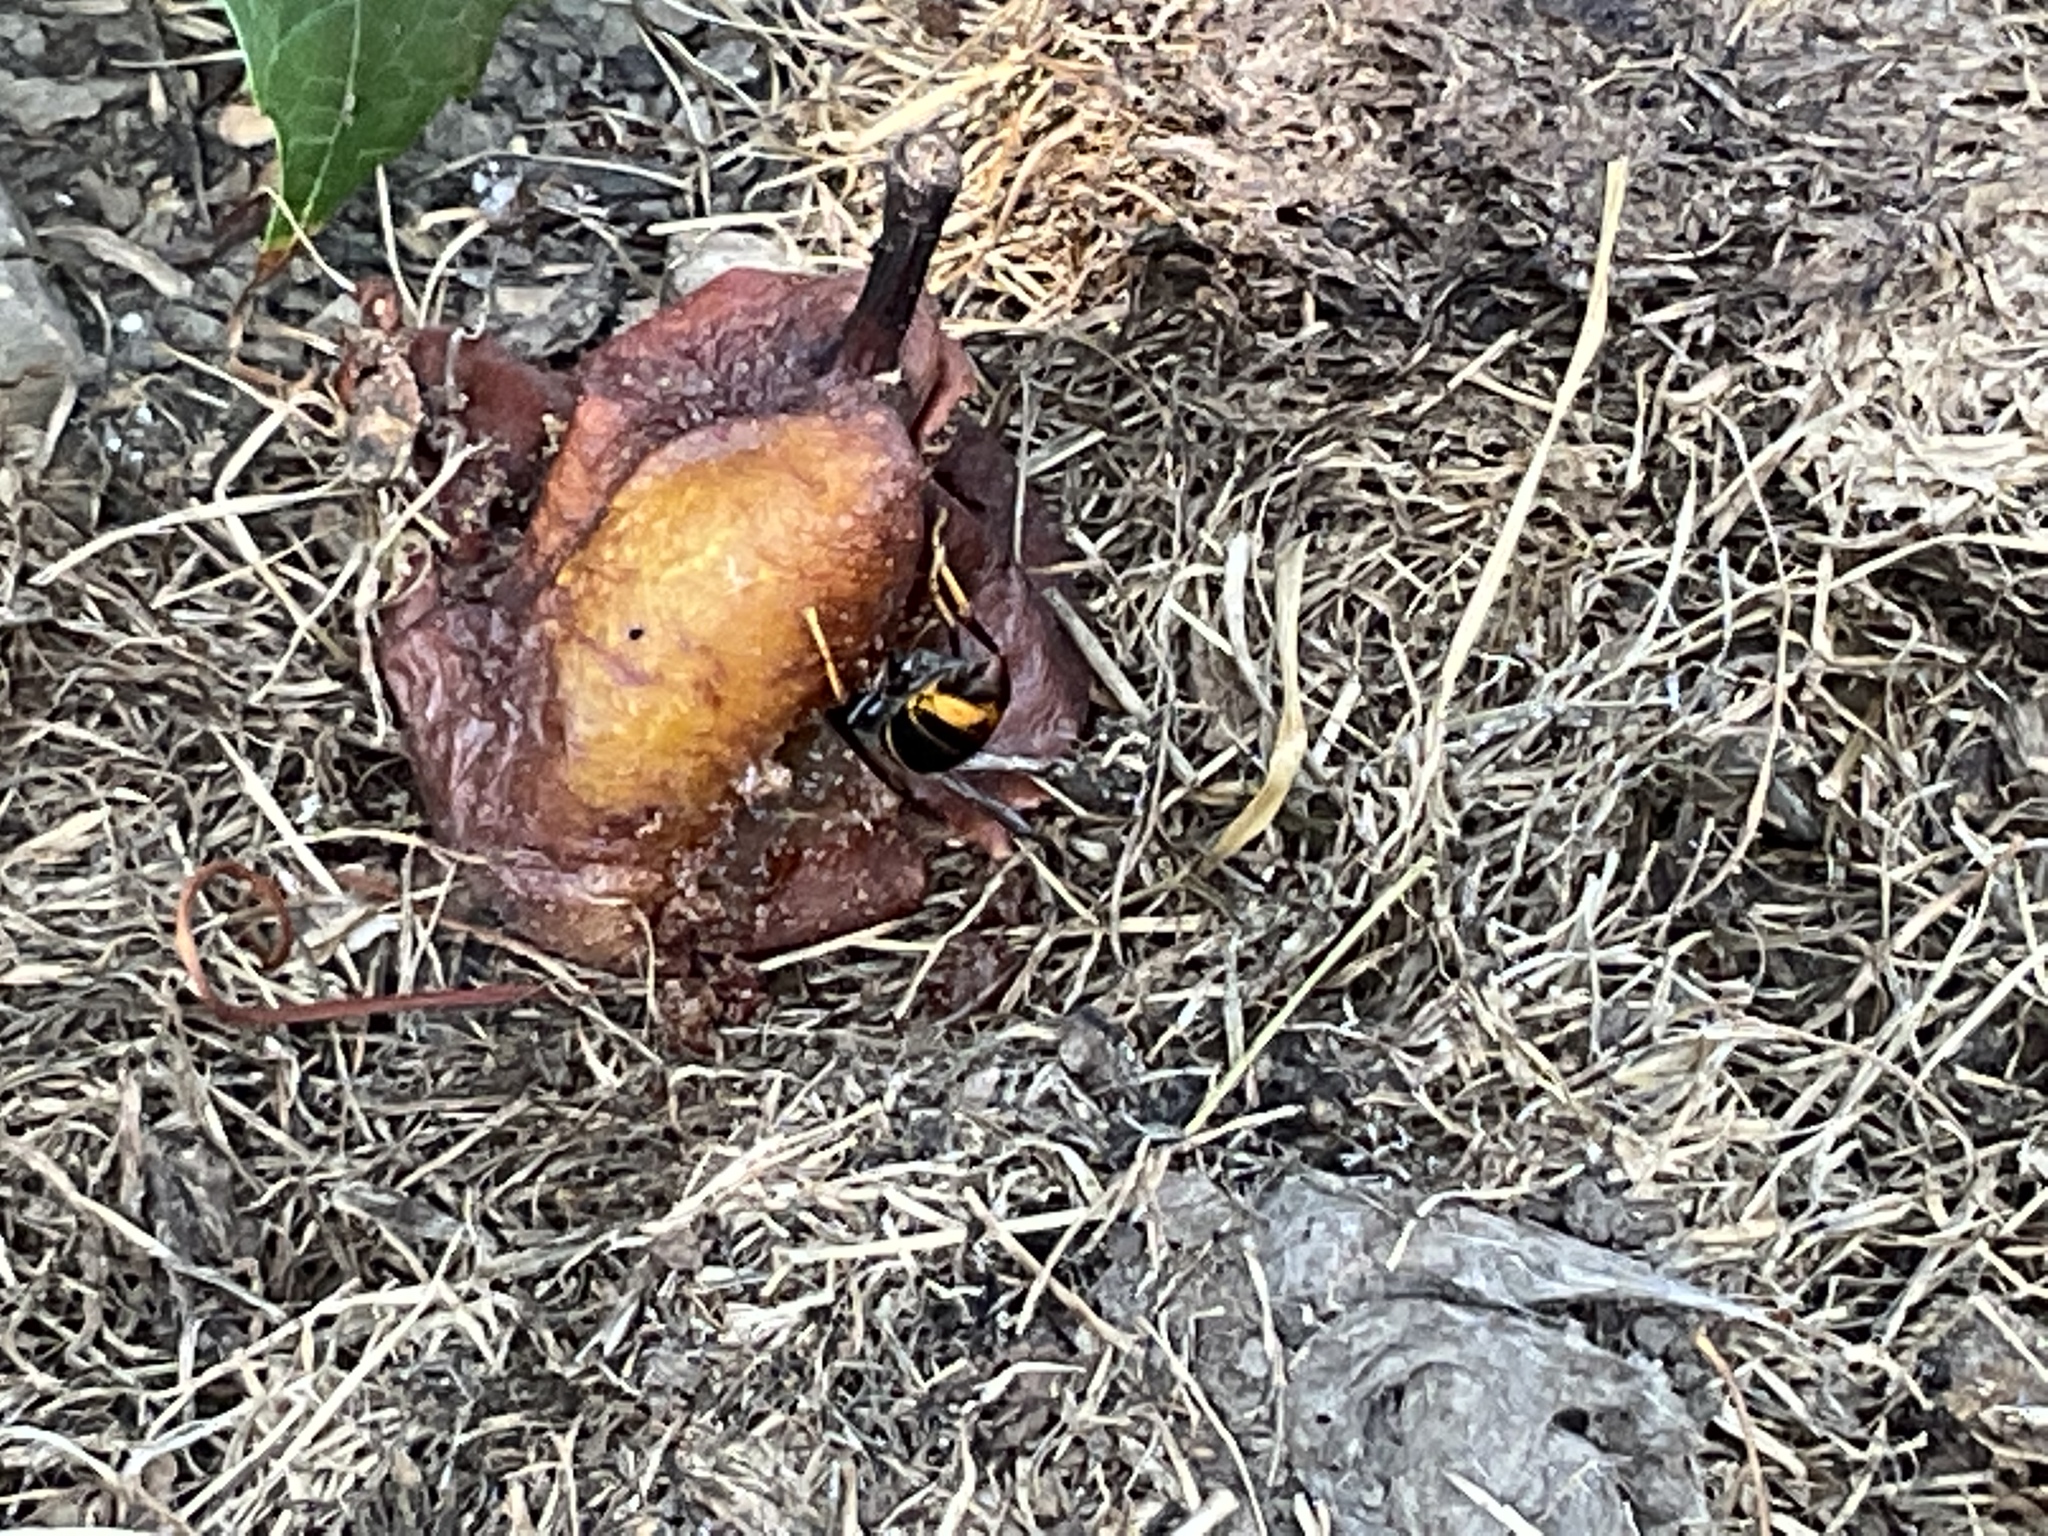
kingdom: Animalia
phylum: Arthropoda
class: Insecta
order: Hymenoptera
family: Vespidae
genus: Vespa
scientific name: Vespa velutina
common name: Asian hornet
